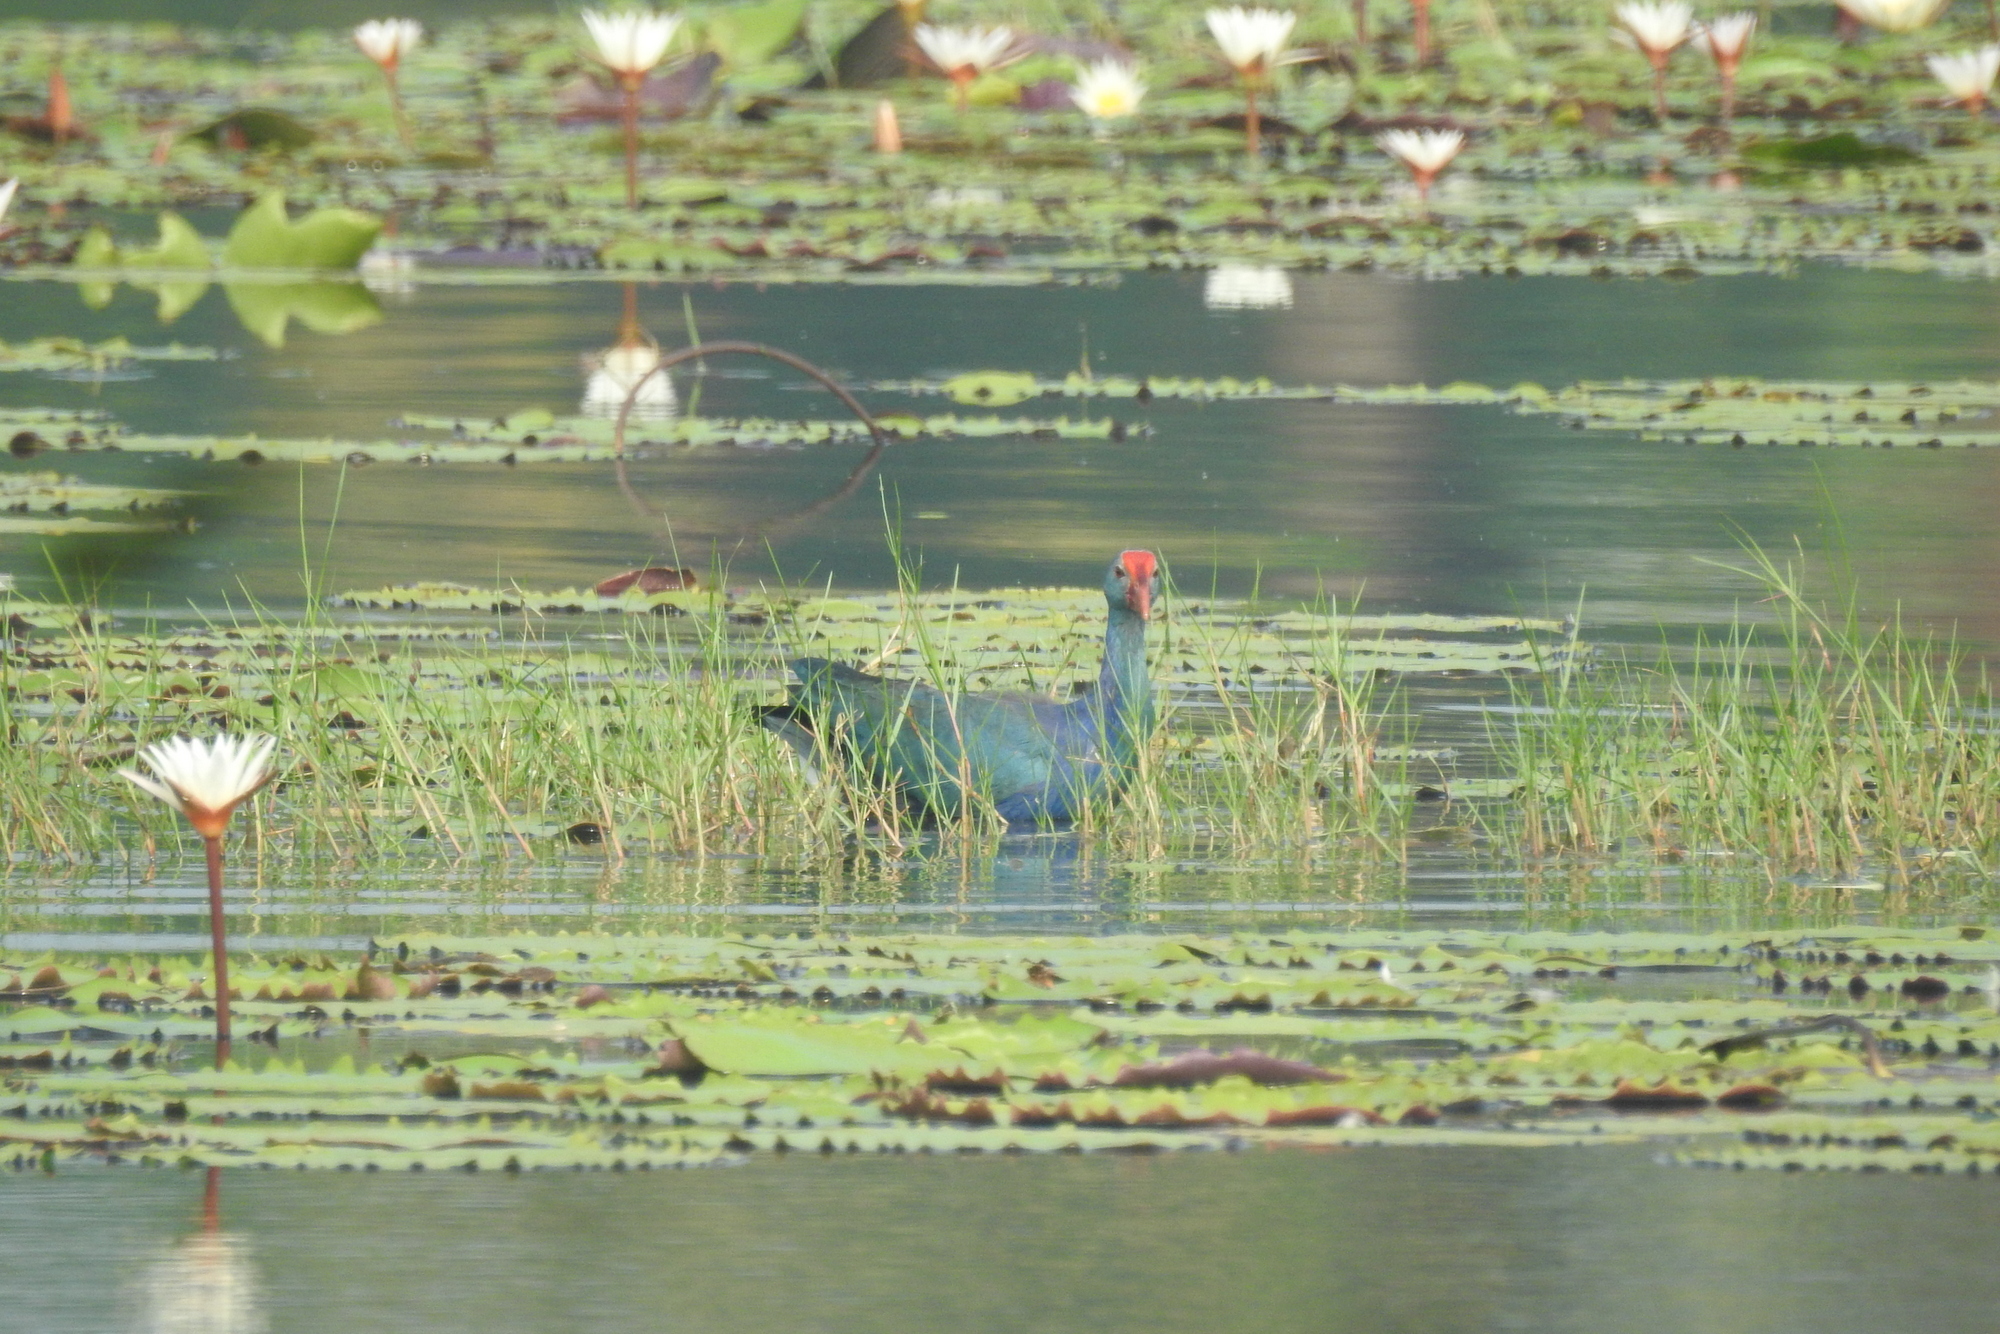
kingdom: Animalia
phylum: Chordata
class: Aves
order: Gruiformes
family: Rallidae
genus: Porphyrio
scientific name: Porphyrio porphyrio
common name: Purple swamphen
